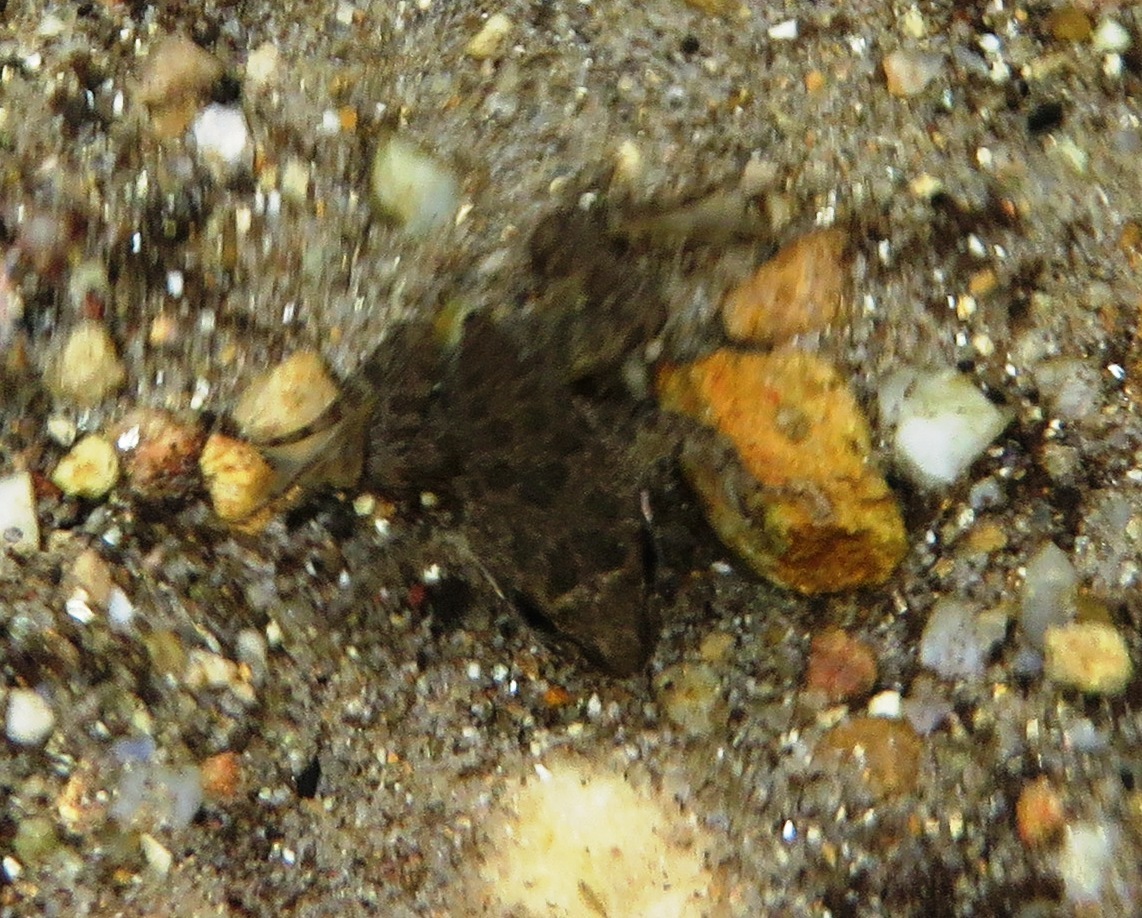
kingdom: Animalia
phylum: Chordata
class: Amphibia
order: Anura
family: Pyxicephalidae
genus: Amietia
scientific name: Amietia fuscigula
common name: Cape rana
